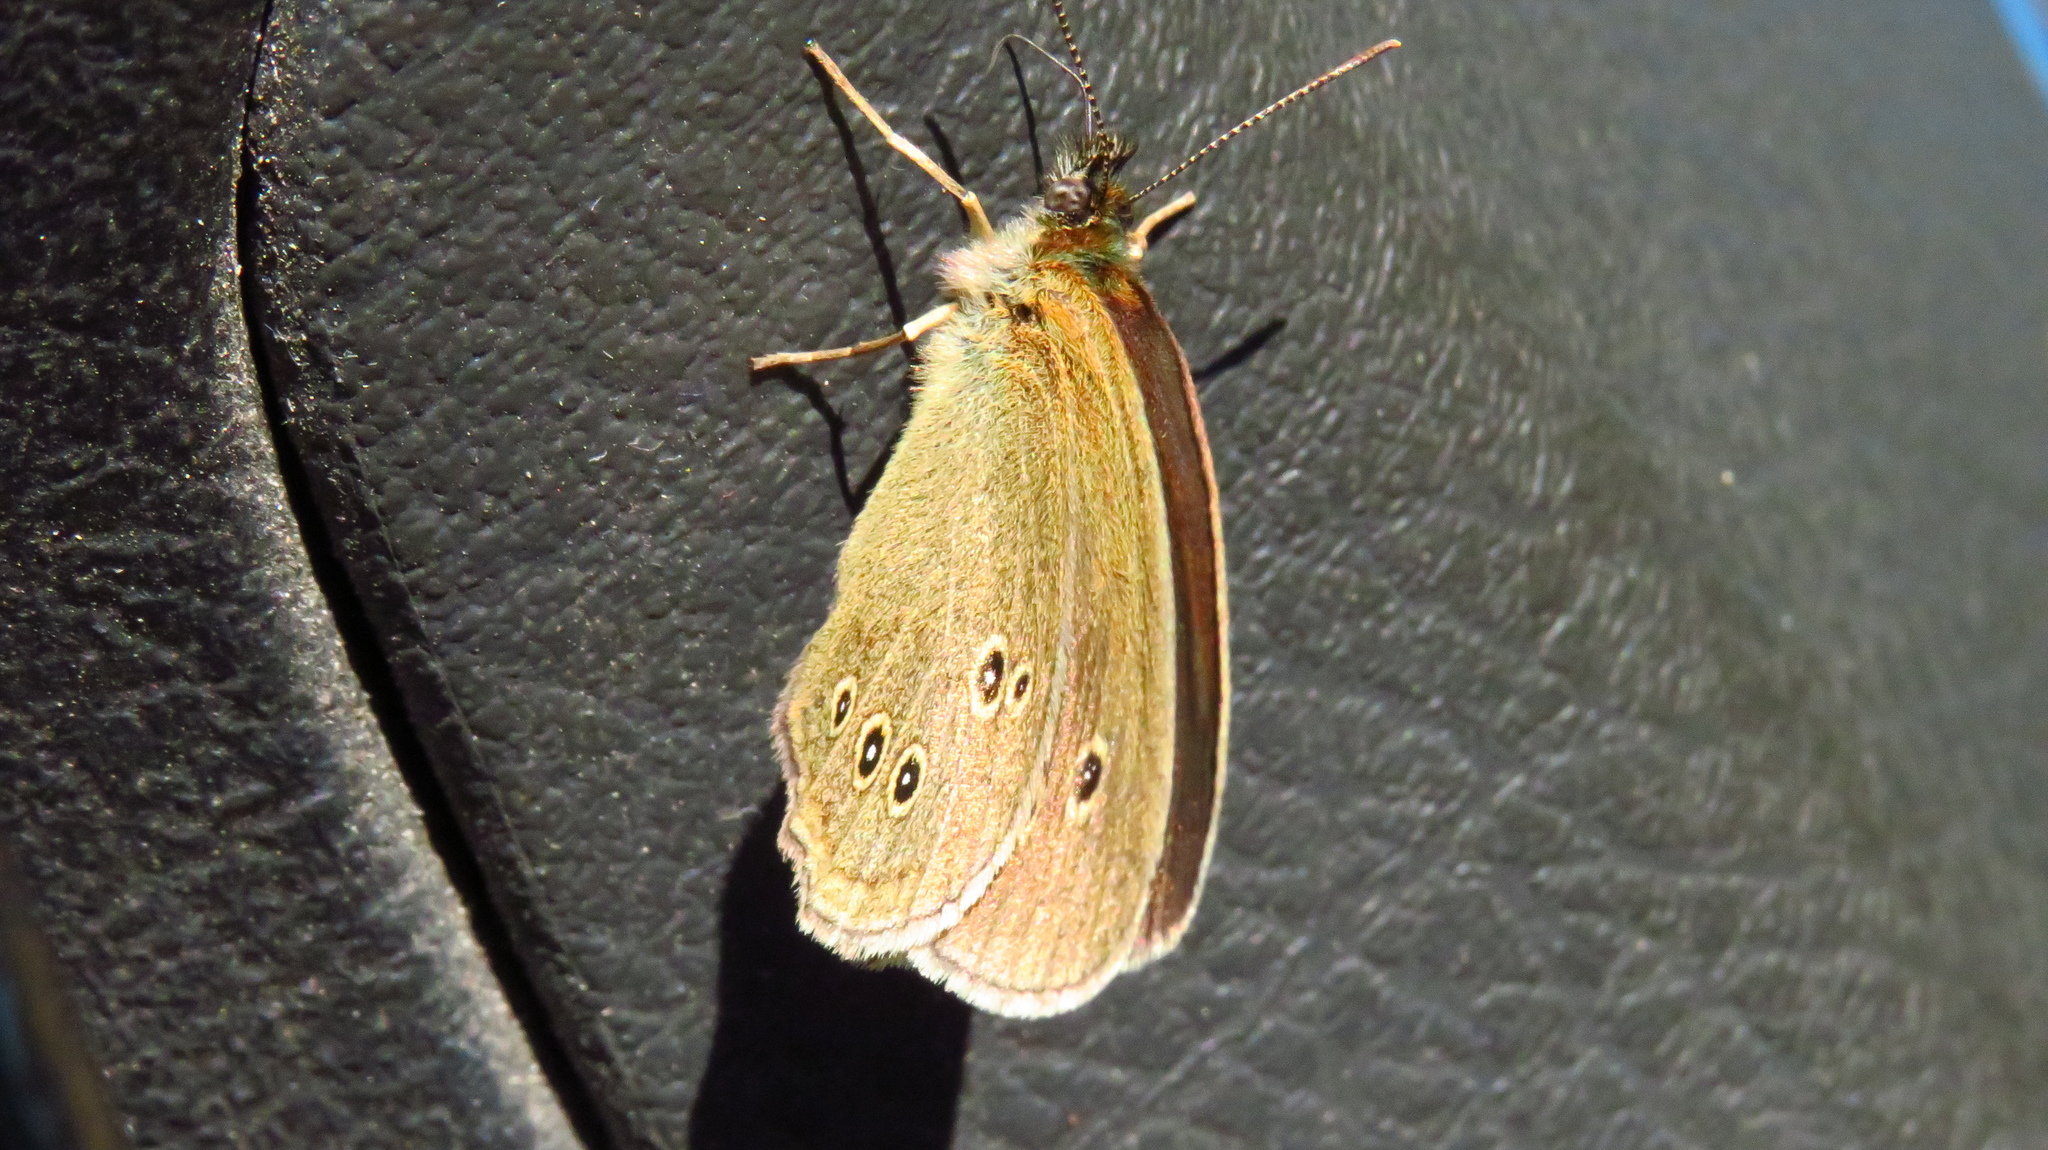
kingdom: Animalia
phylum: Arthropoda
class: Insecta
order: Lepidoptera
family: Nymphalidae
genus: Aphantopus
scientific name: Aphantopus hyperantus
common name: Ringlet
